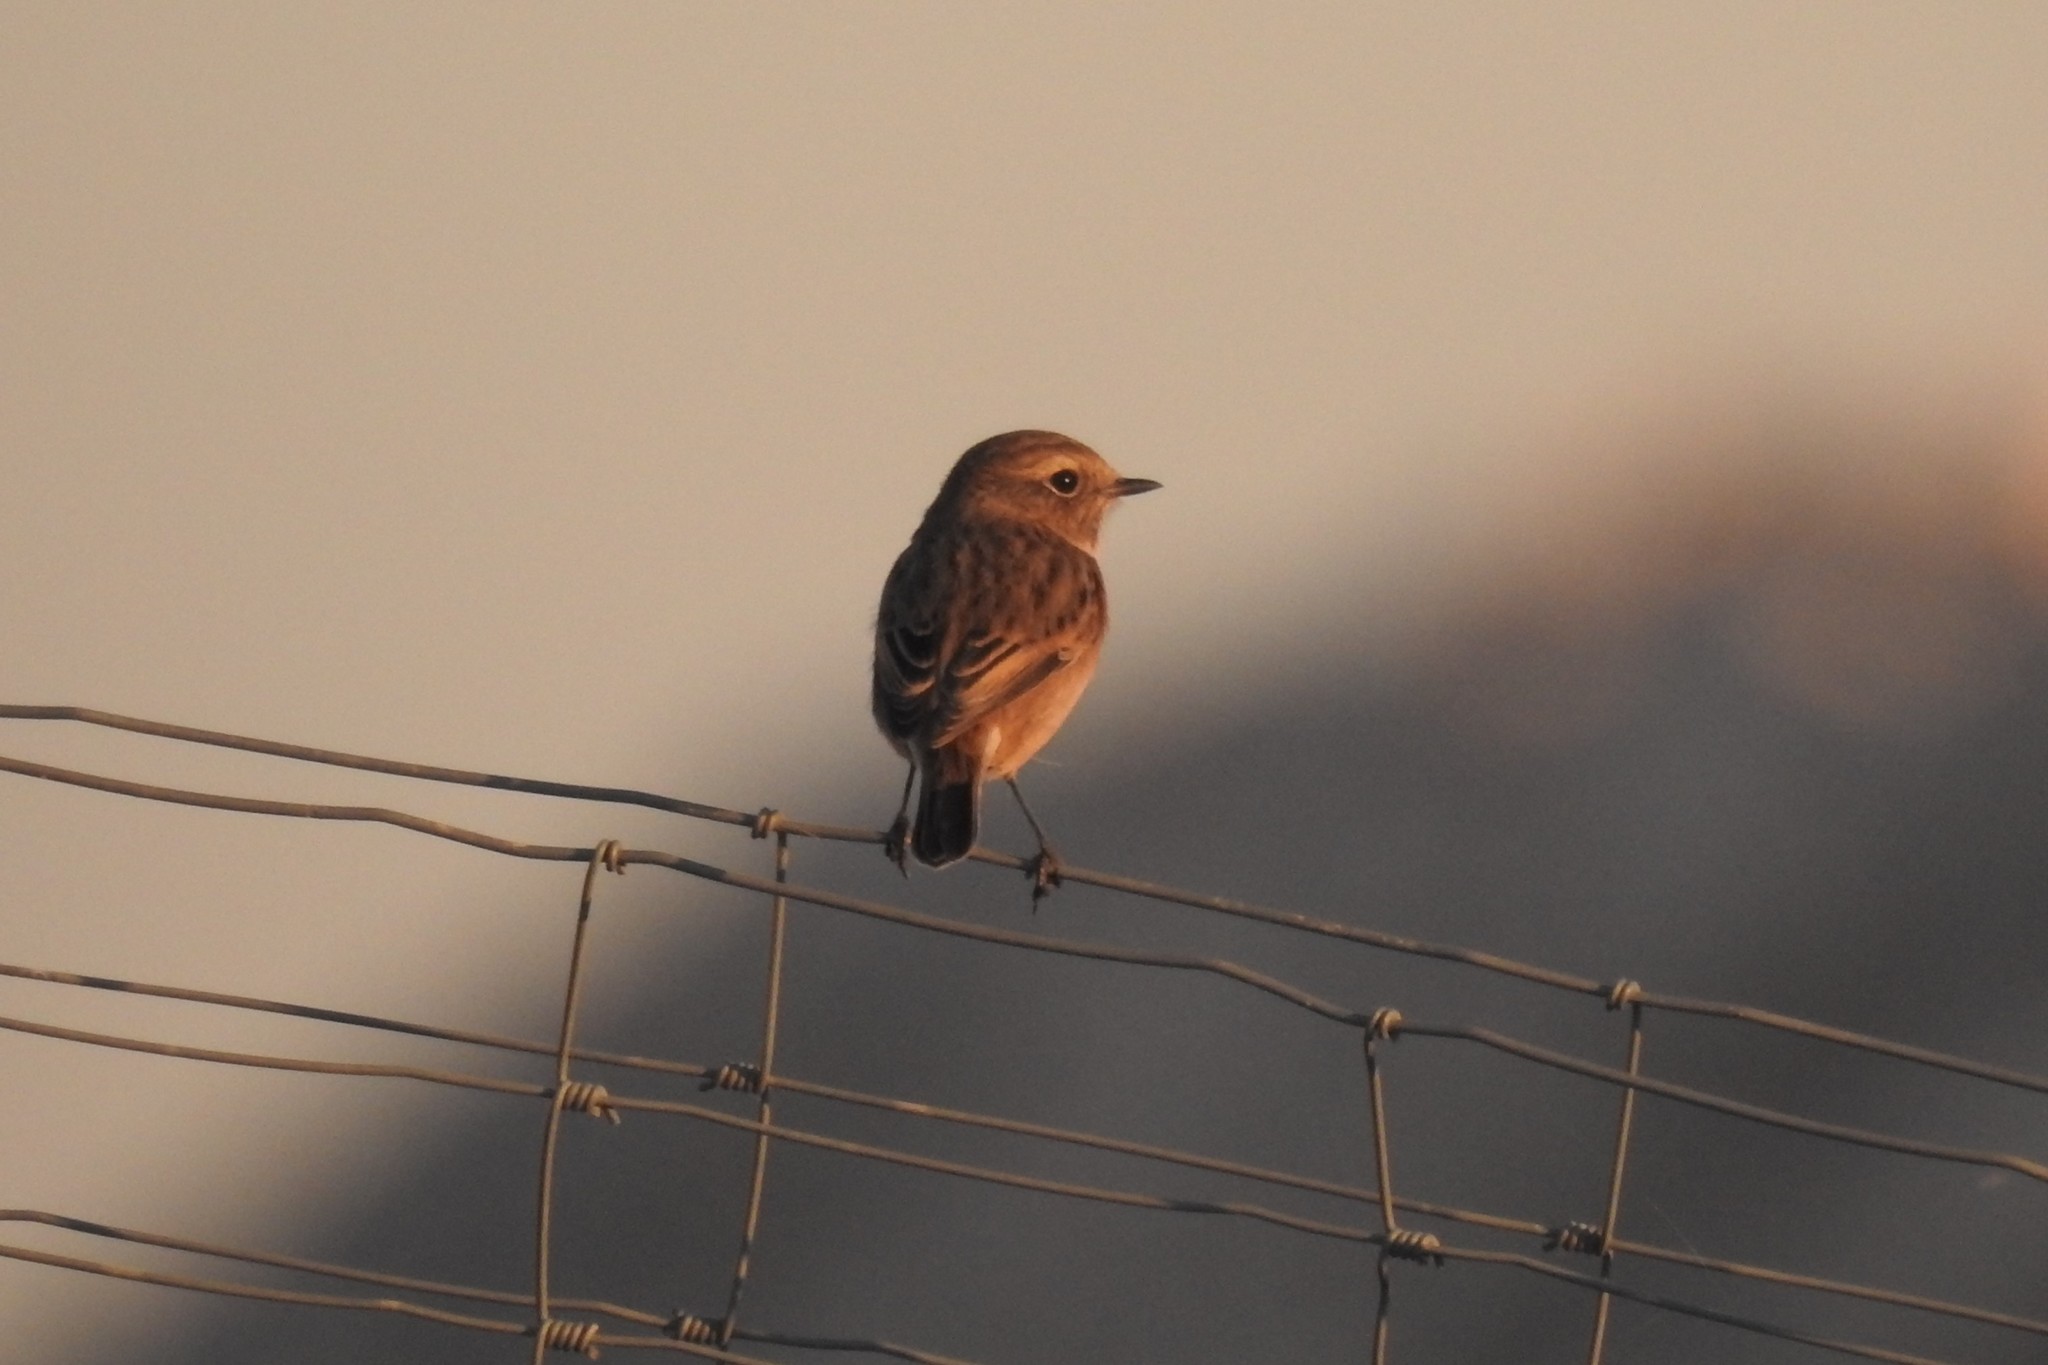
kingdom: Animalia
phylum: Chordata
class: Aves
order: Passeriformes
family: Muscicapidae
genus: Saxicola
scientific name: Saxicola rubicola
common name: European stonechat
